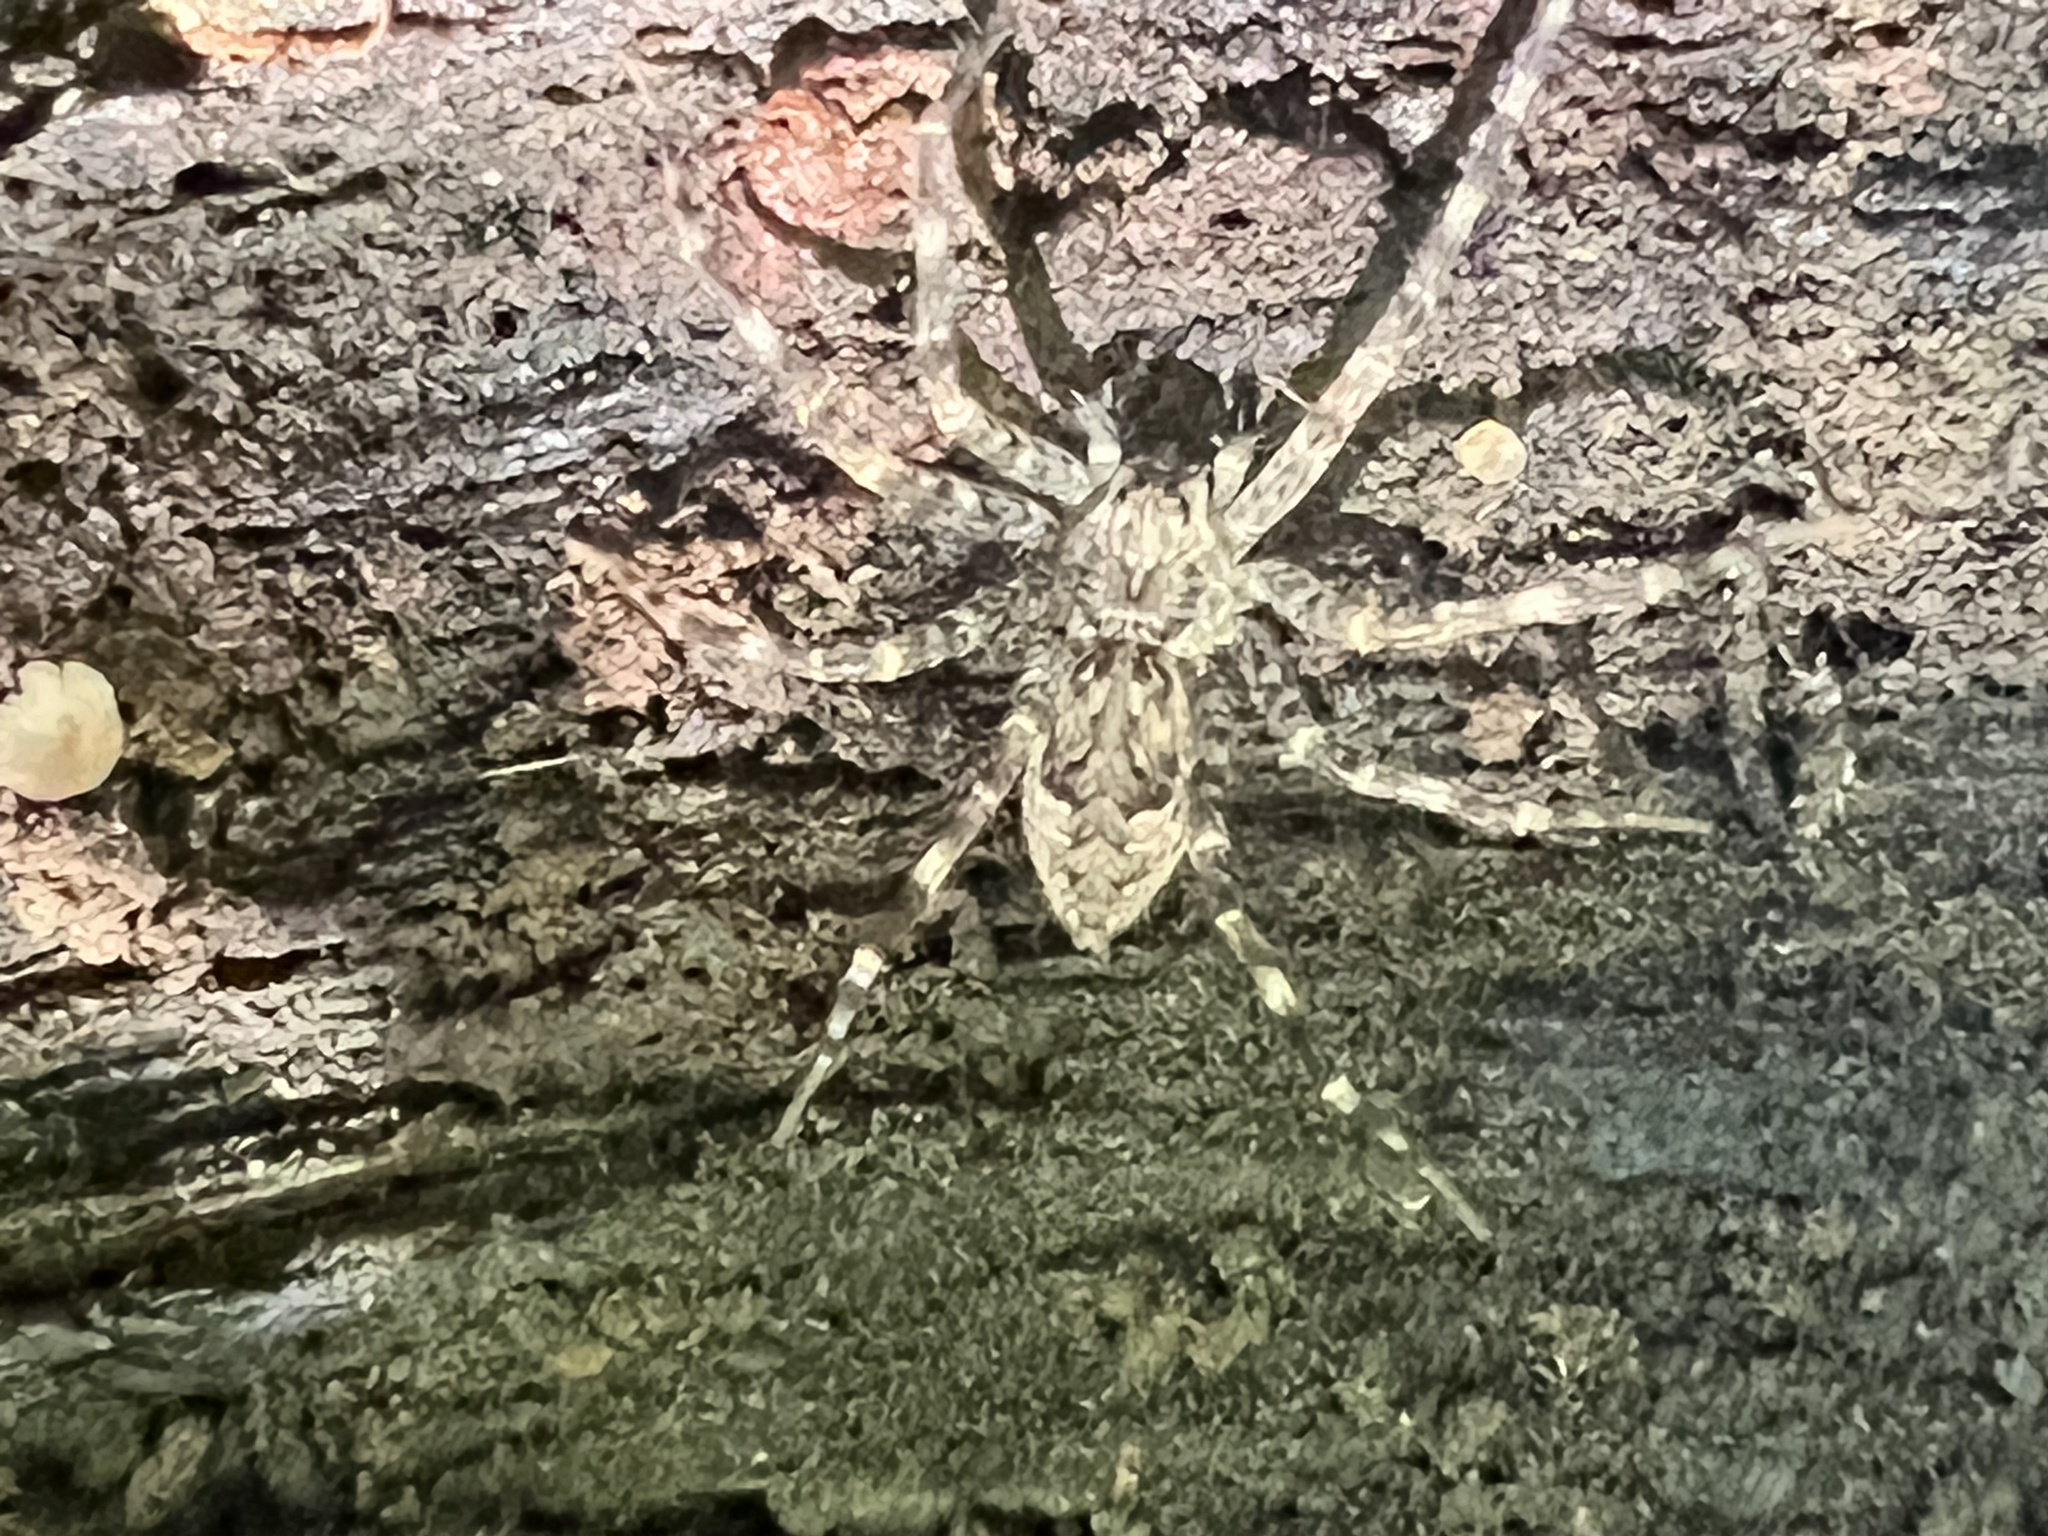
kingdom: Animalia
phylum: Arthropoda
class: Arachnida
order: Araneae
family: Pisauridae
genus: Dolomedes
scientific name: Dolomedes tenebrosus
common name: Dark fishing spider
